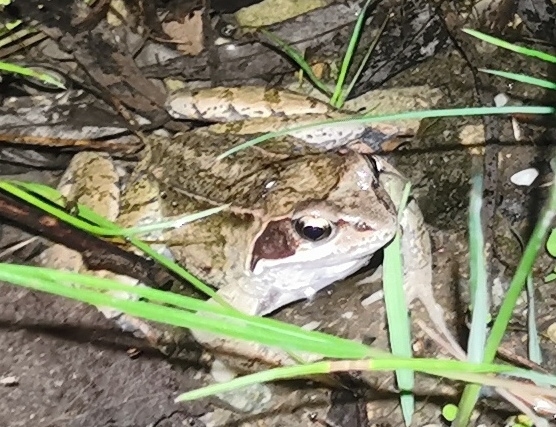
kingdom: Animalia
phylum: Chordata
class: Amphibia
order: Anura
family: Ranidae
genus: Rana
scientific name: Rana temporaria
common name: Common frog
